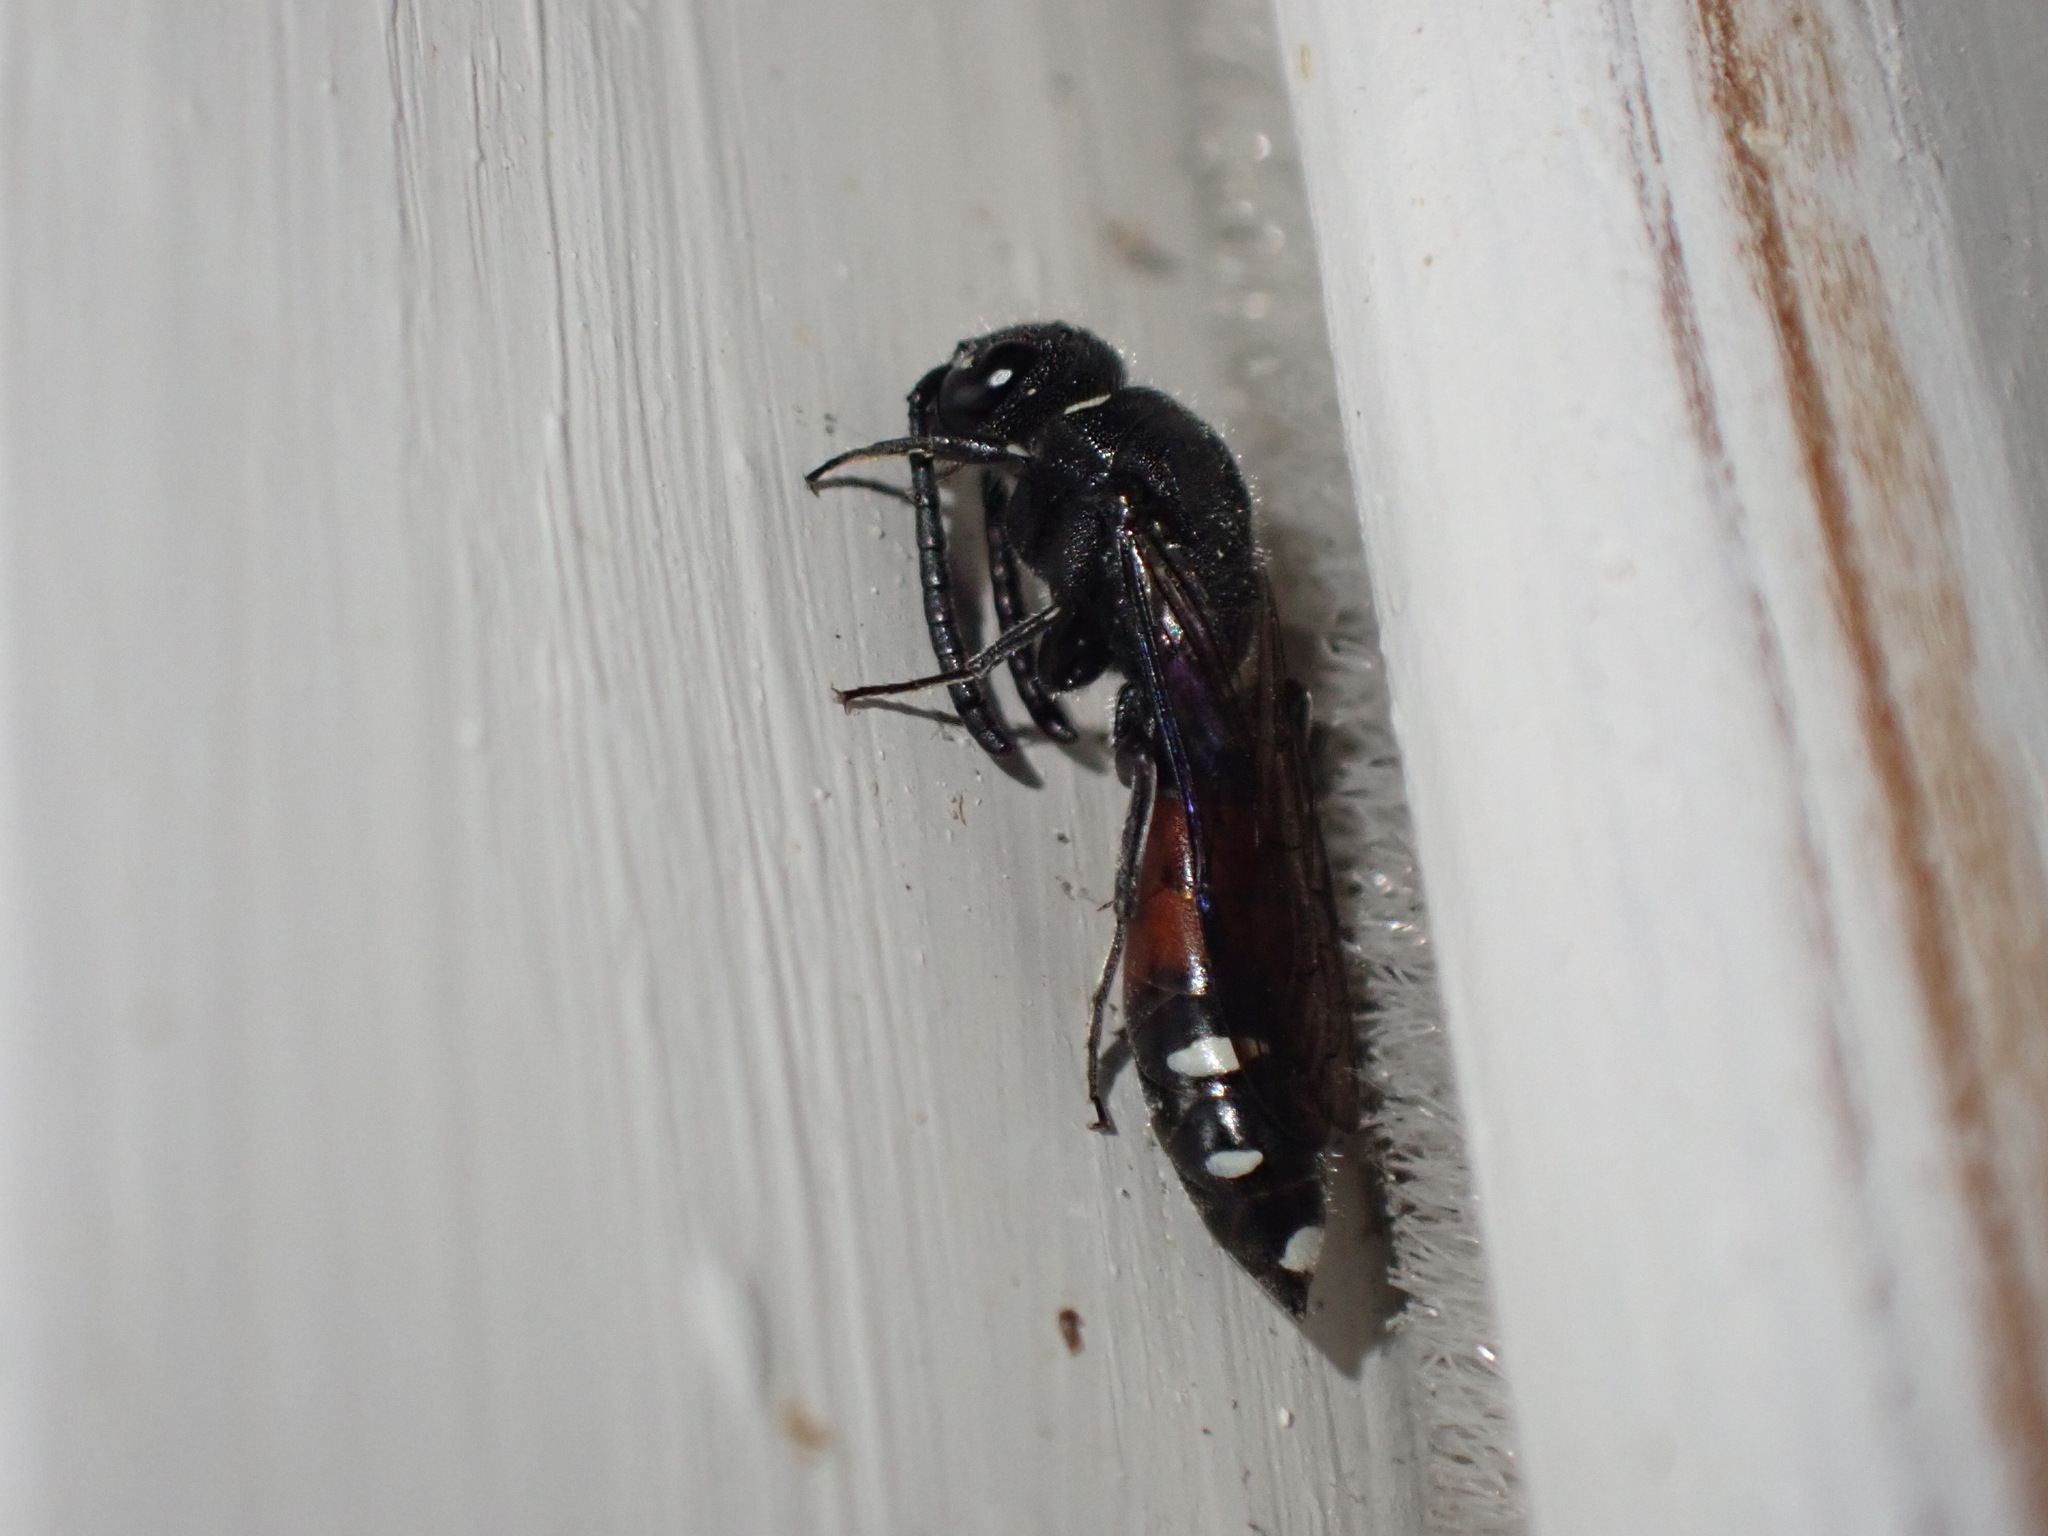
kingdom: Animalia
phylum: Arthropoda
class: Insecta
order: Hymenoptera
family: Sapygidae
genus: Sapyga
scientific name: Sapyga quinquepunctata
